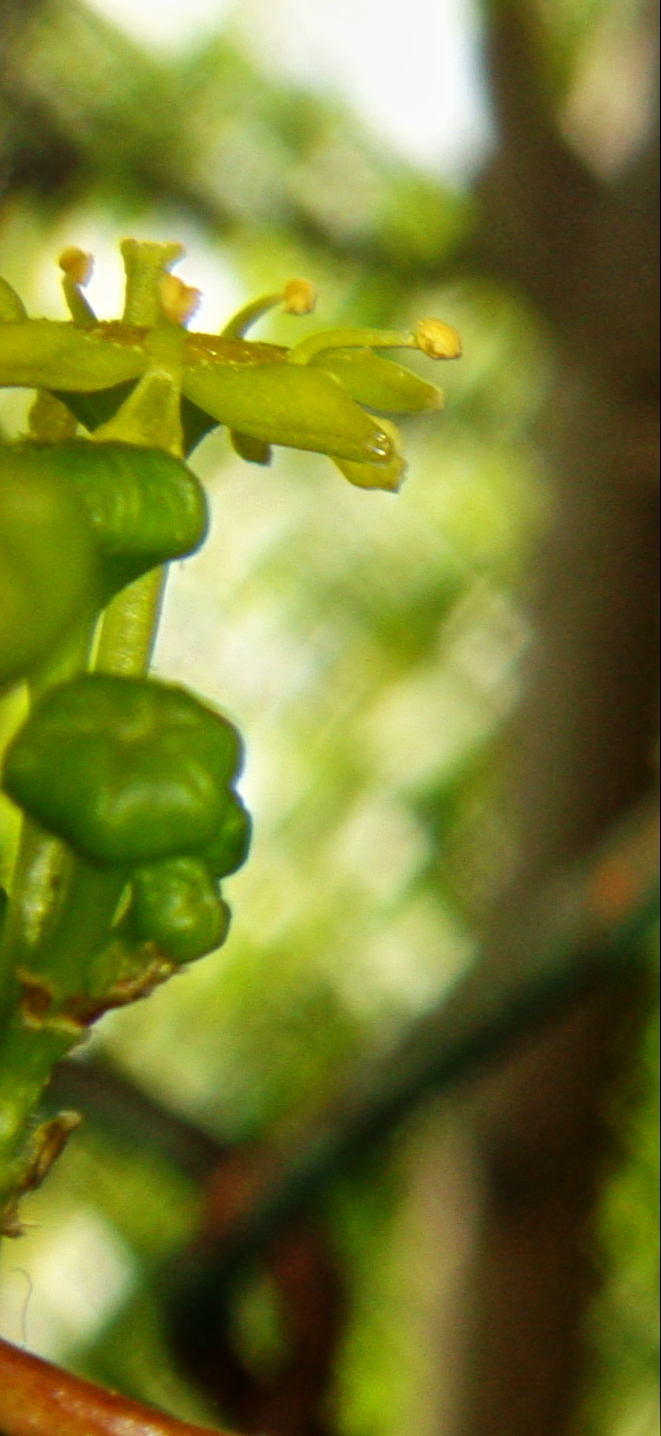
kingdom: Plantae
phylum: Tracheophyta
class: Magnoliopsida
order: Rosales
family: Rhamnaceae
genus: Paliurus
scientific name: Paliurus spina-christi
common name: Jeruselem thorn
